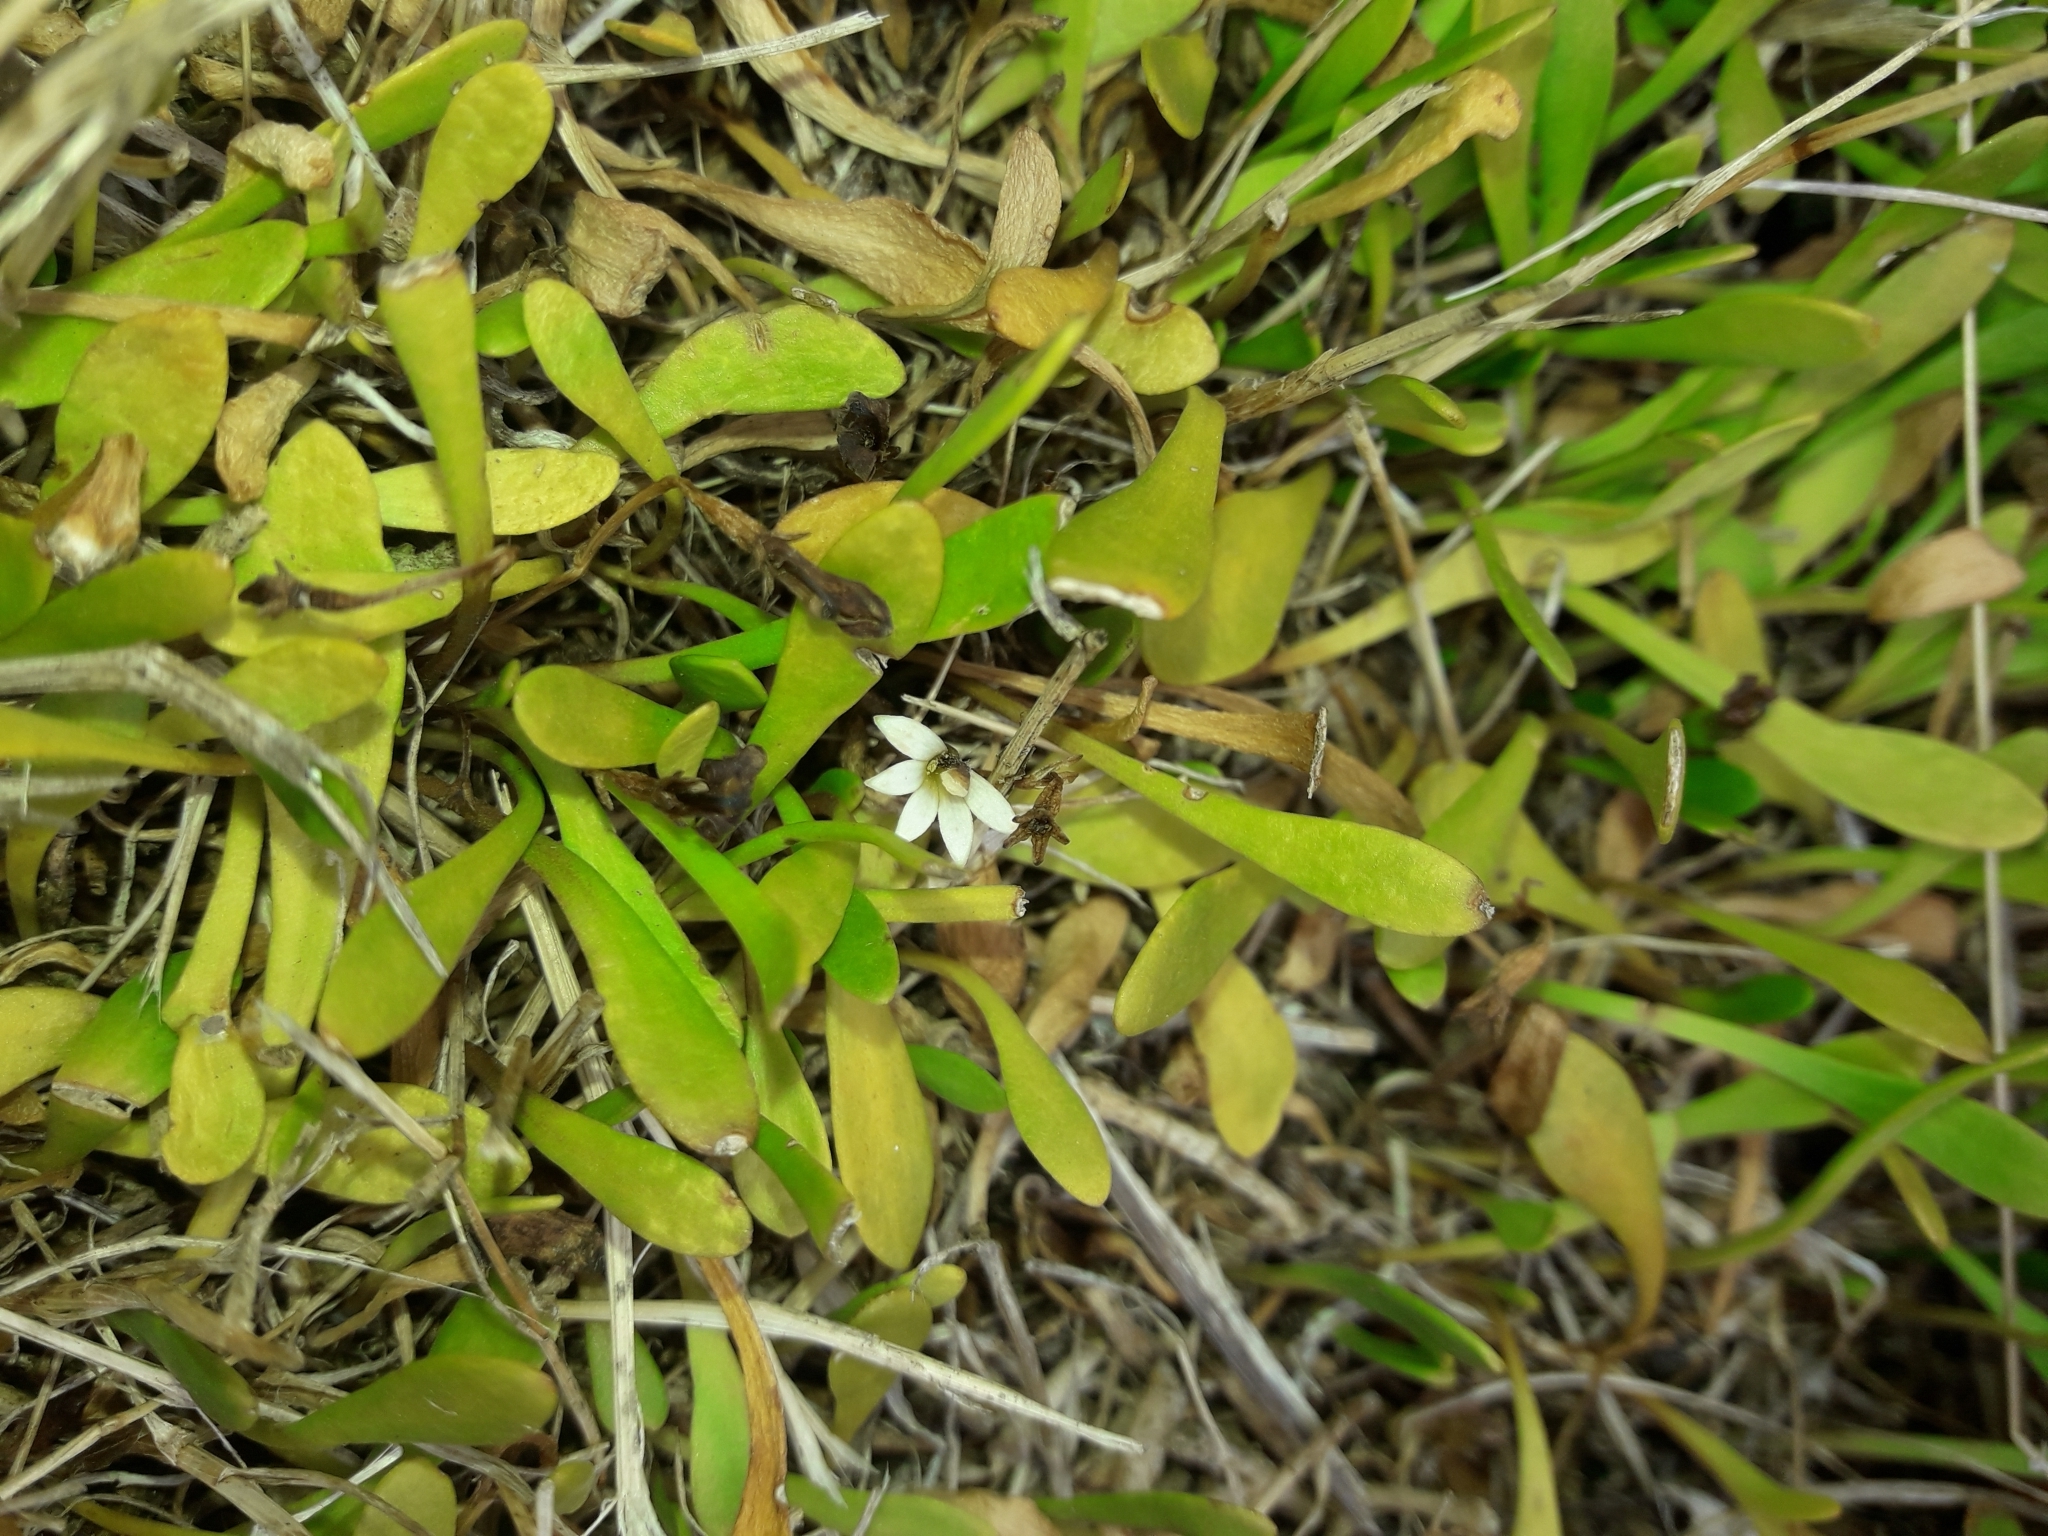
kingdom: Plantae
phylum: Tracheophyta
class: Magnoliopsida
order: Asterales
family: Goodeniaceae
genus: Goodenia
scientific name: Goodenia radicans
